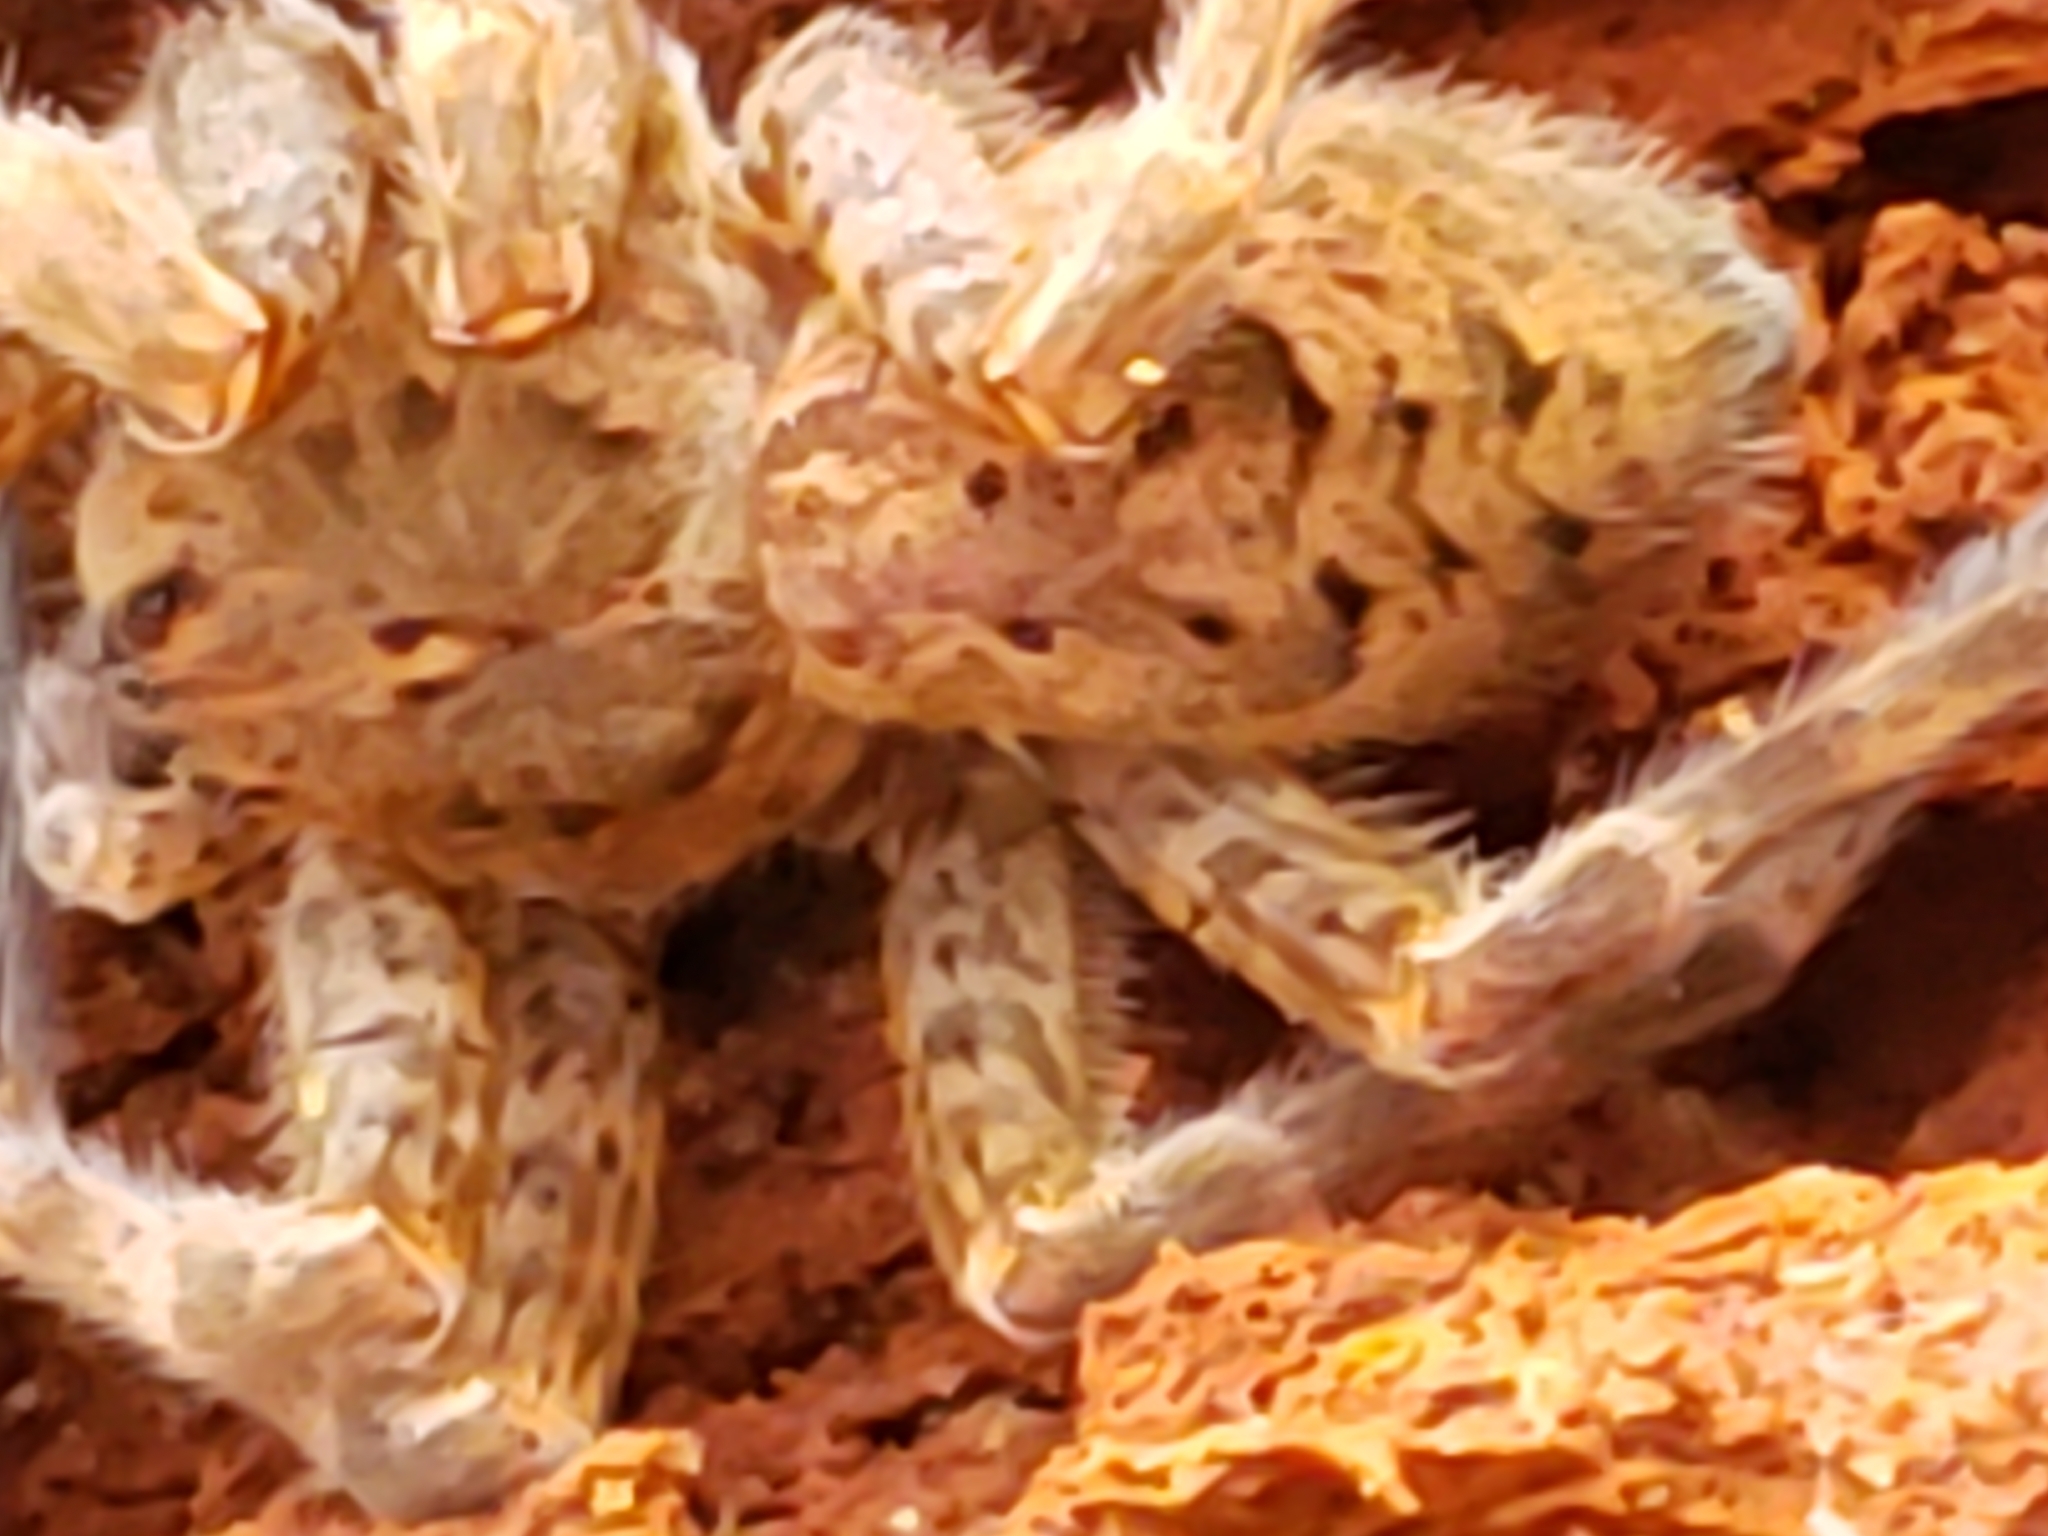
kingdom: Animalia
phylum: Arthropoda
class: Arachnida
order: Araneae
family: Pisauridae
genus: Dolomedes
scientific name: Dolomedes tenebrosus
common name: Dark fishing spider
